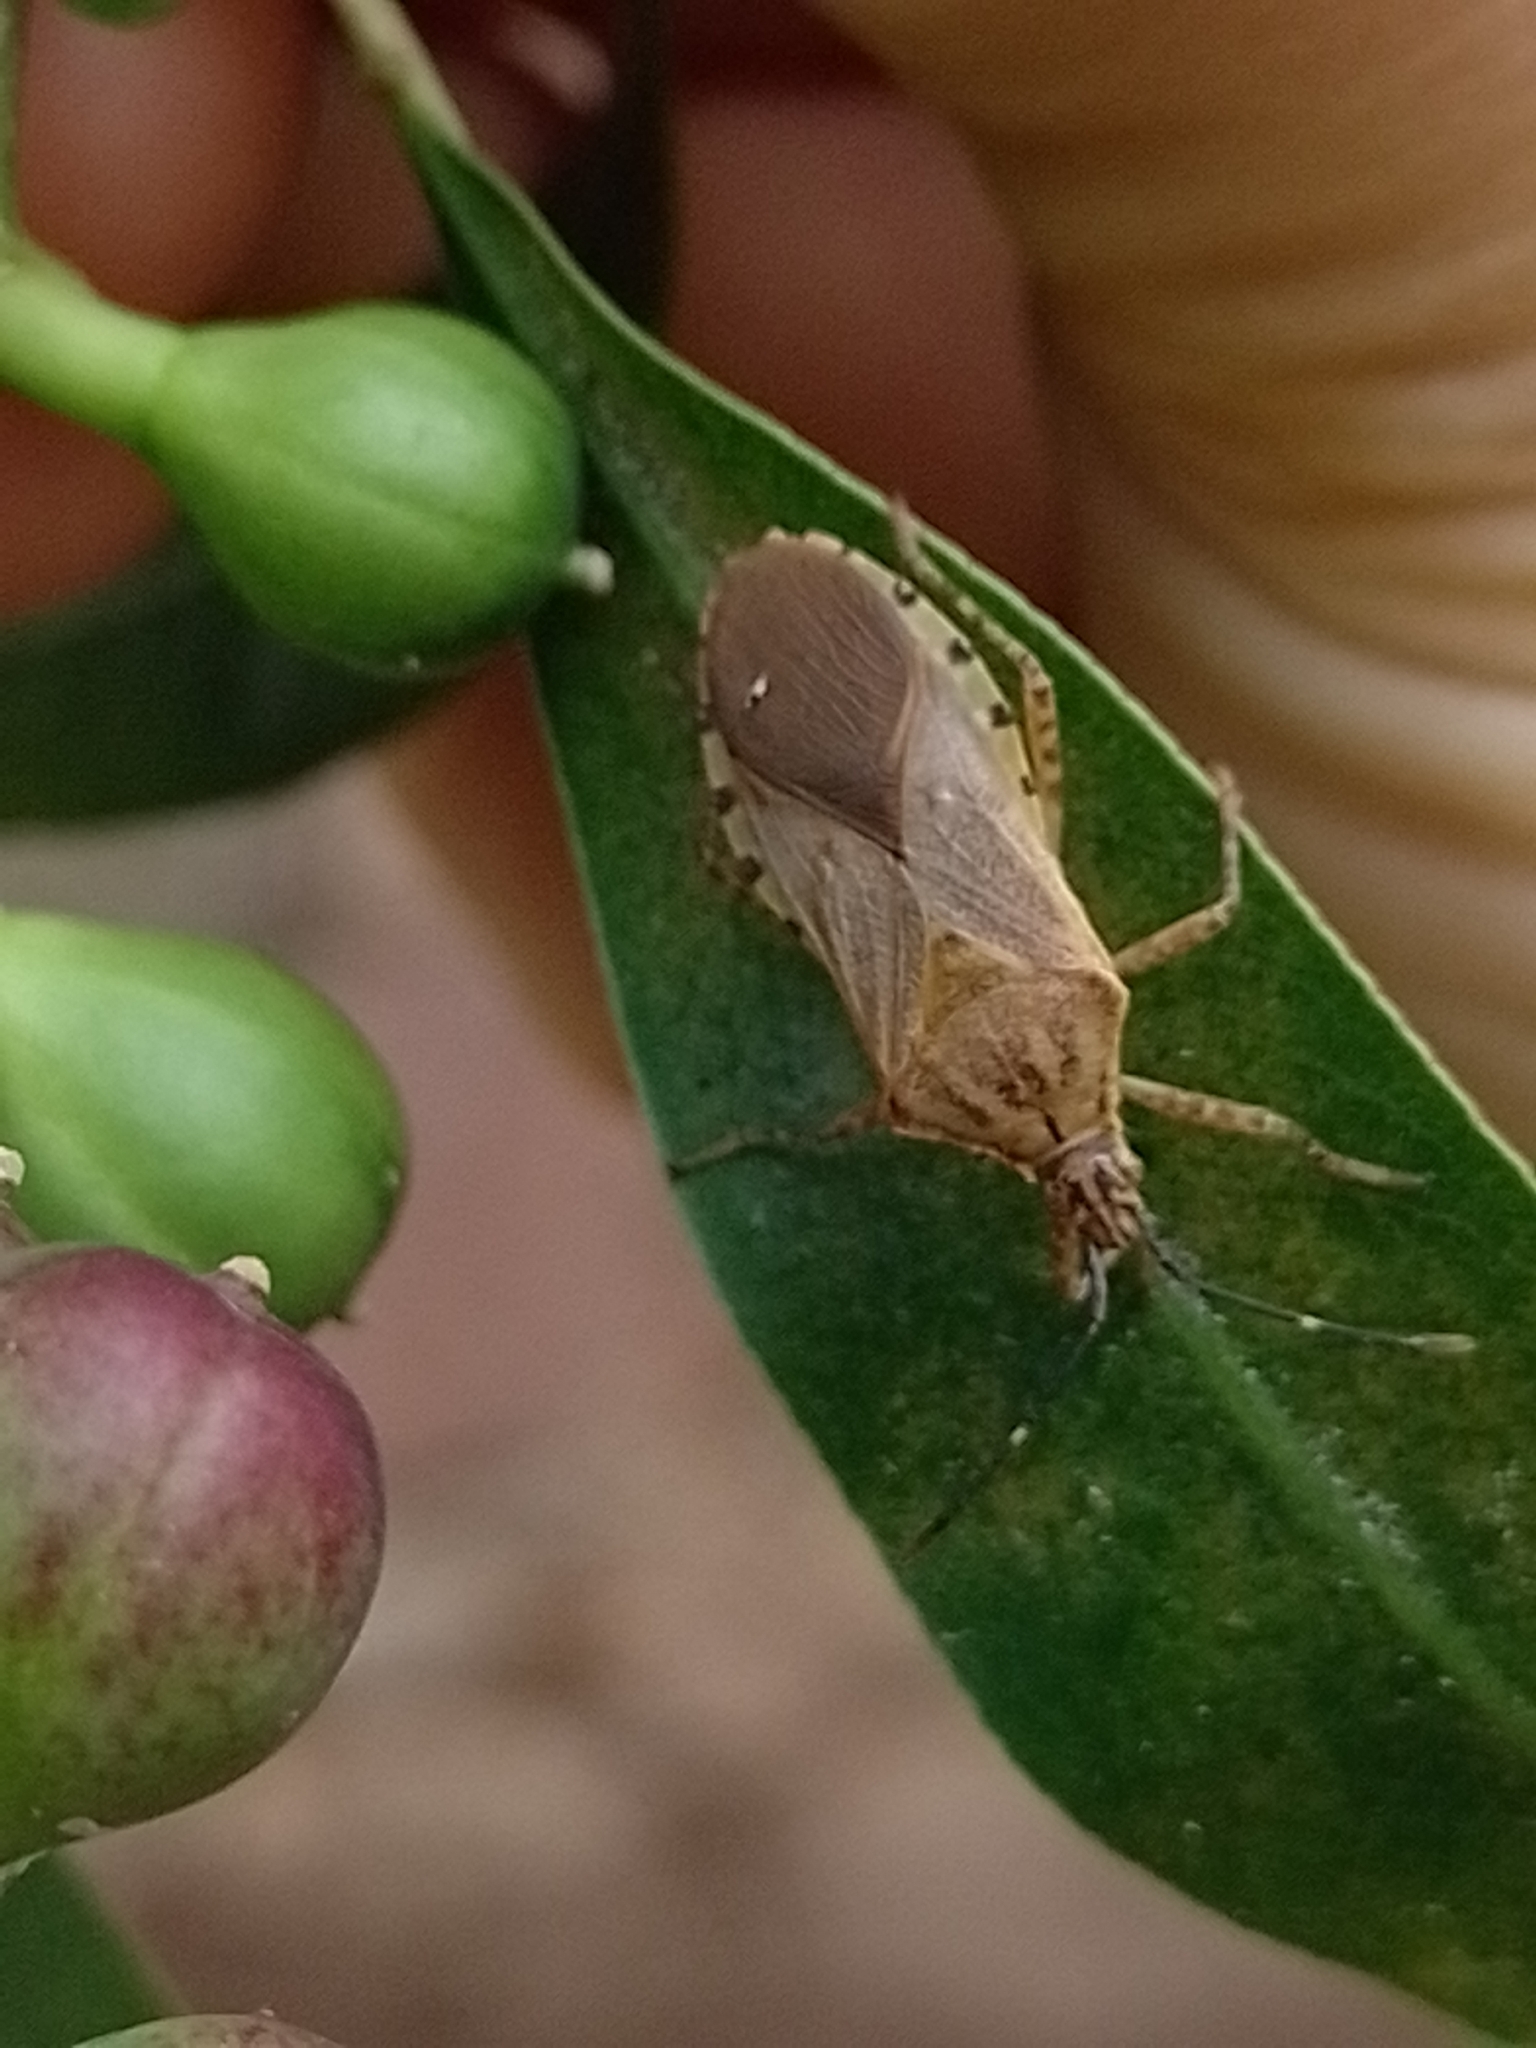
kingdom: Animalia
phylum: Arthropoda
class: Insecta
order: Hemiptera
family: Coreidae
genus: Acidomeria
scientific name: Acidomeria cincticornis
